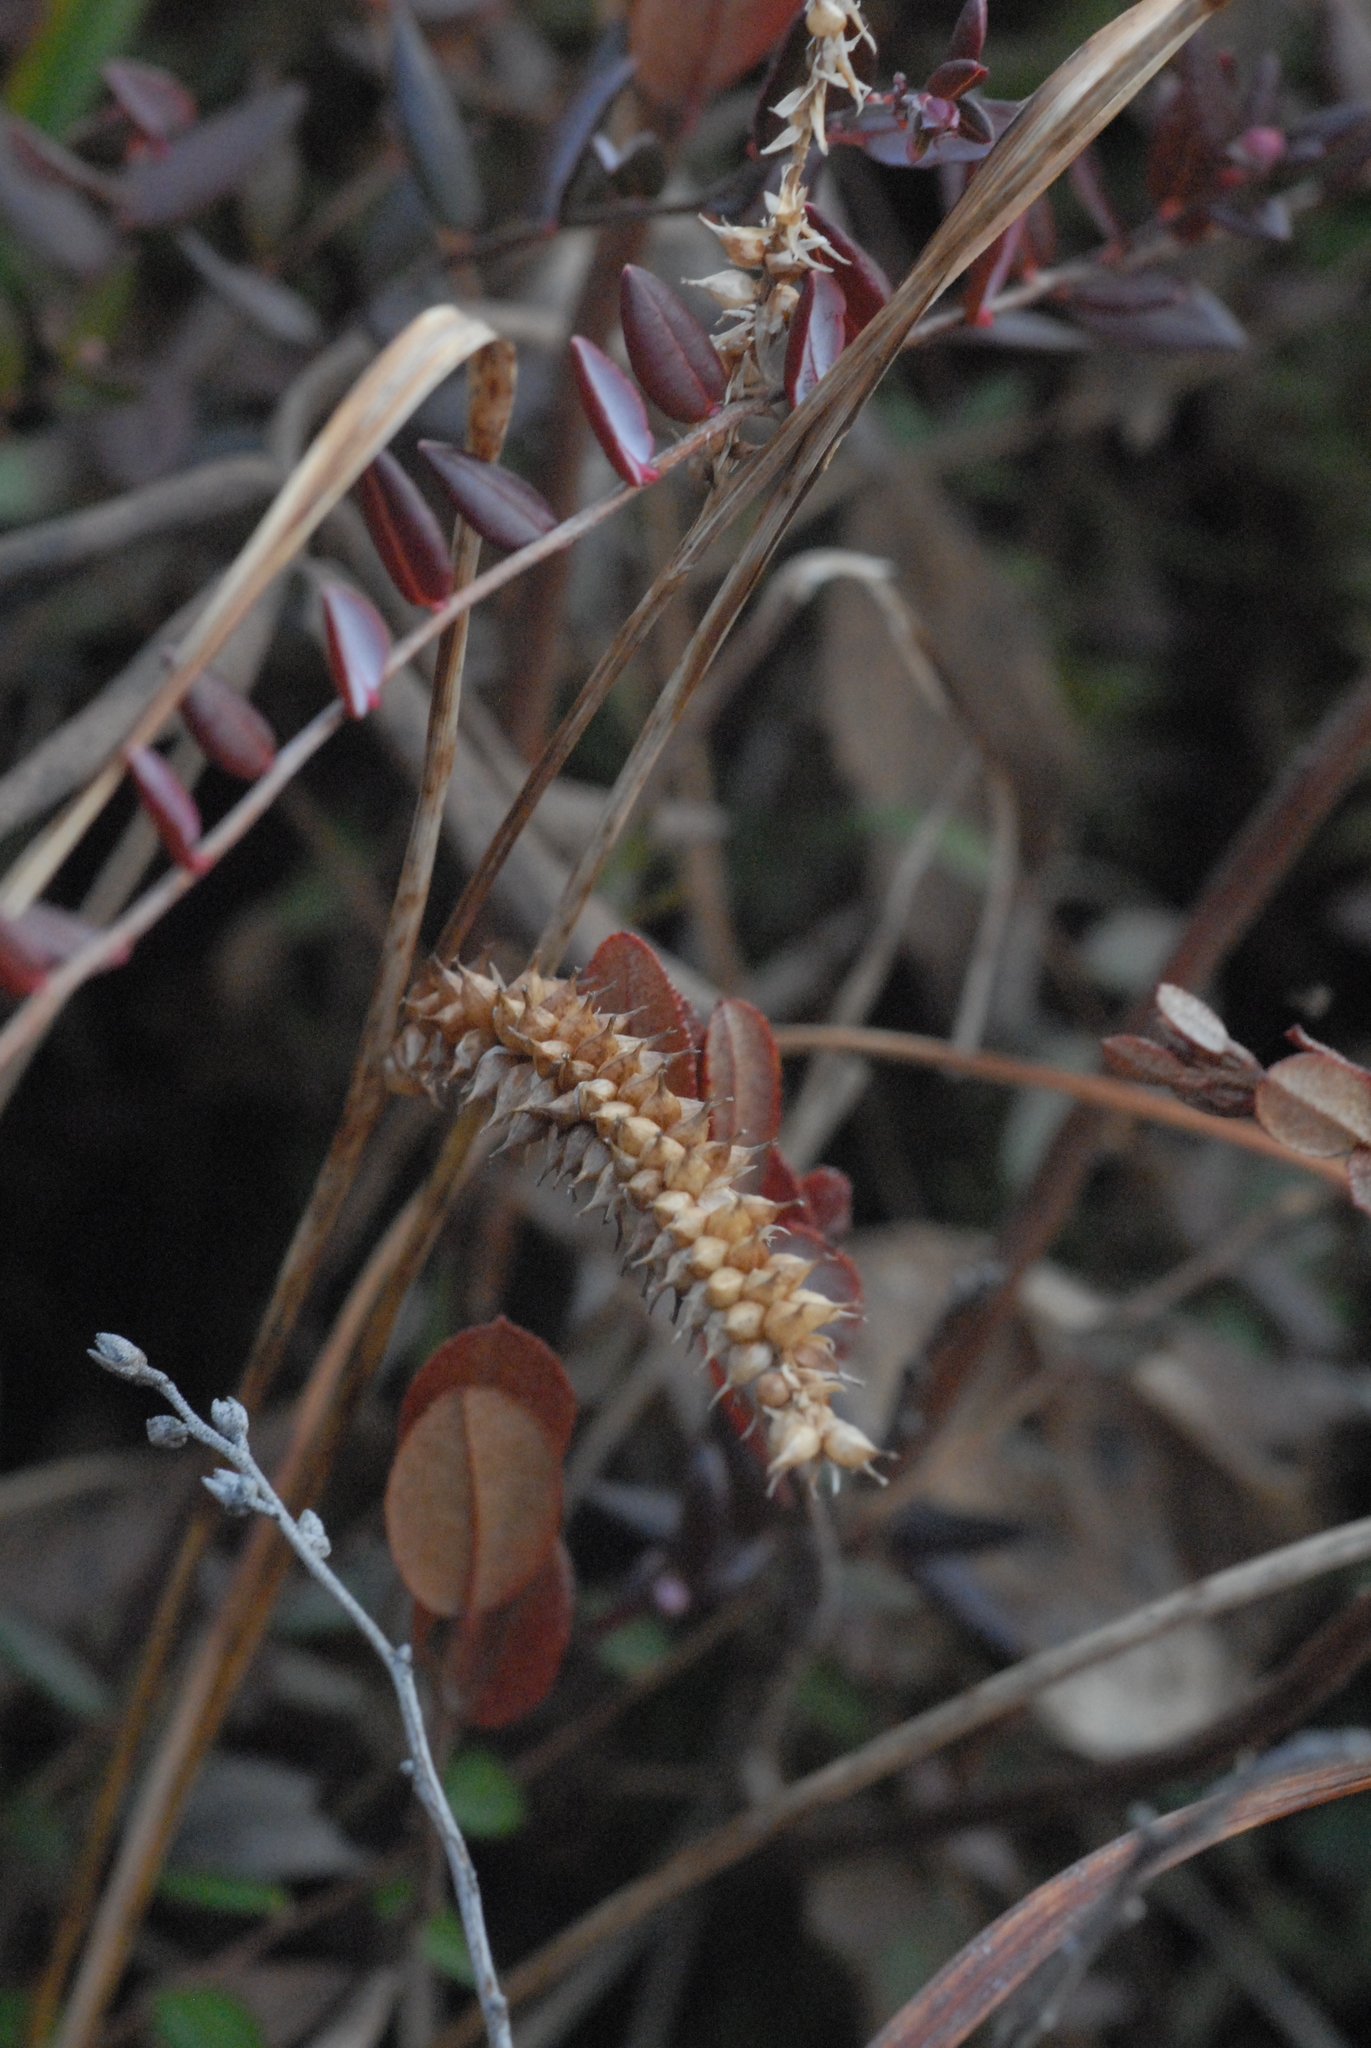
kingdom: Plantae
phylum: Tracheophyta
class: Liliopsida
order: Poales
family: Cyperaceae
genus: Carex
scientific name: Carex rostrata
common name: Bottle sedge
